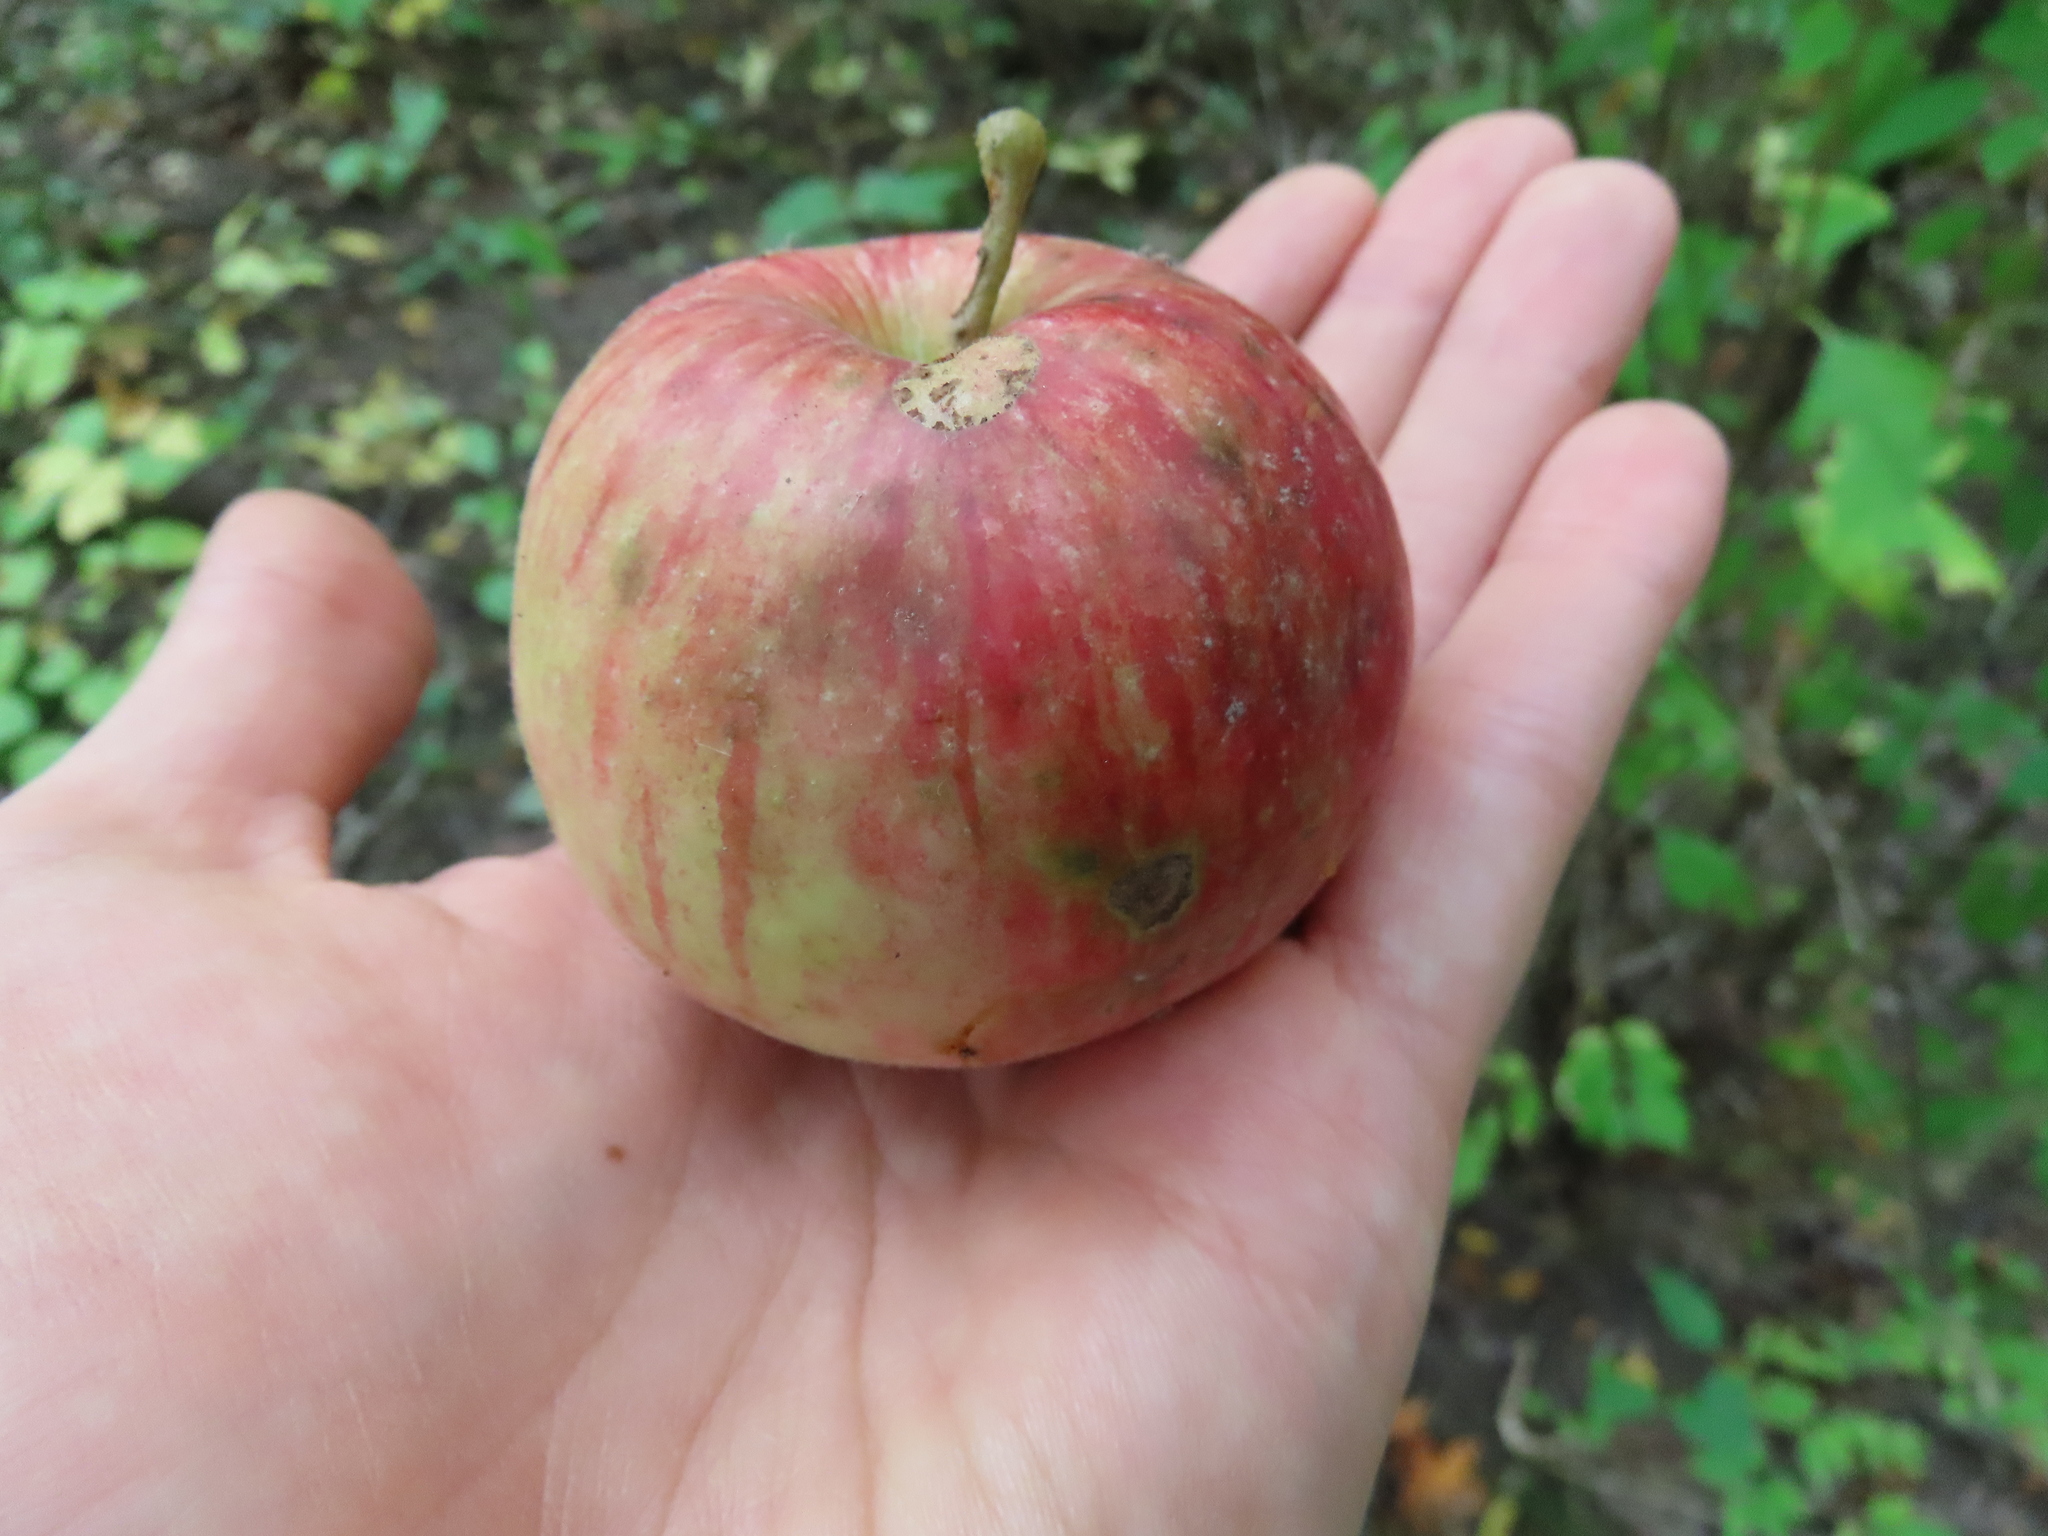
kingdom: Plantae
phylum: Tracheophyta
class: Magnoliopsida
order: Rosales
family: Rosaceae
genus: Malus
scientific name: Malus domestica
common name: Apple
